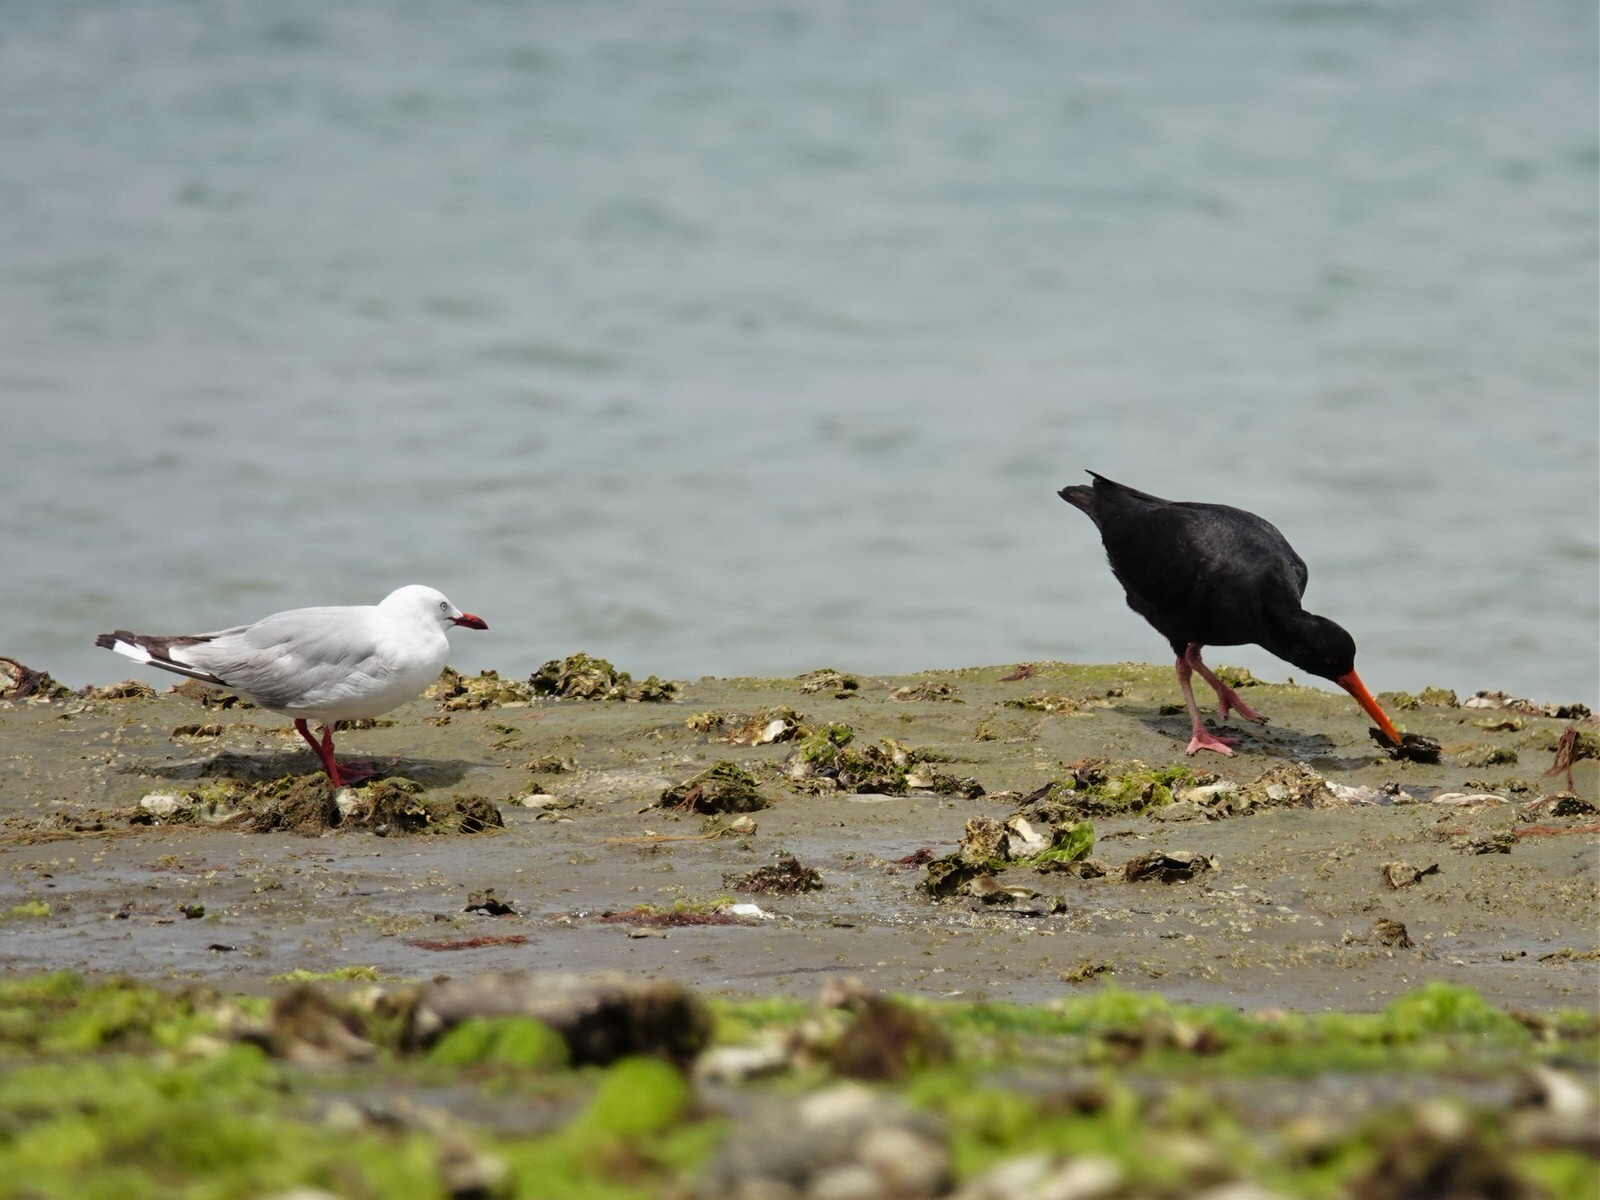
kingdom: Animalia
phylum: Chordata
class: Aves
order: Charadriiformes
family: Haematopodidae
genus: Haematopus
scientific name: Haematopus unicolor
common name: Variable oystercatcher
